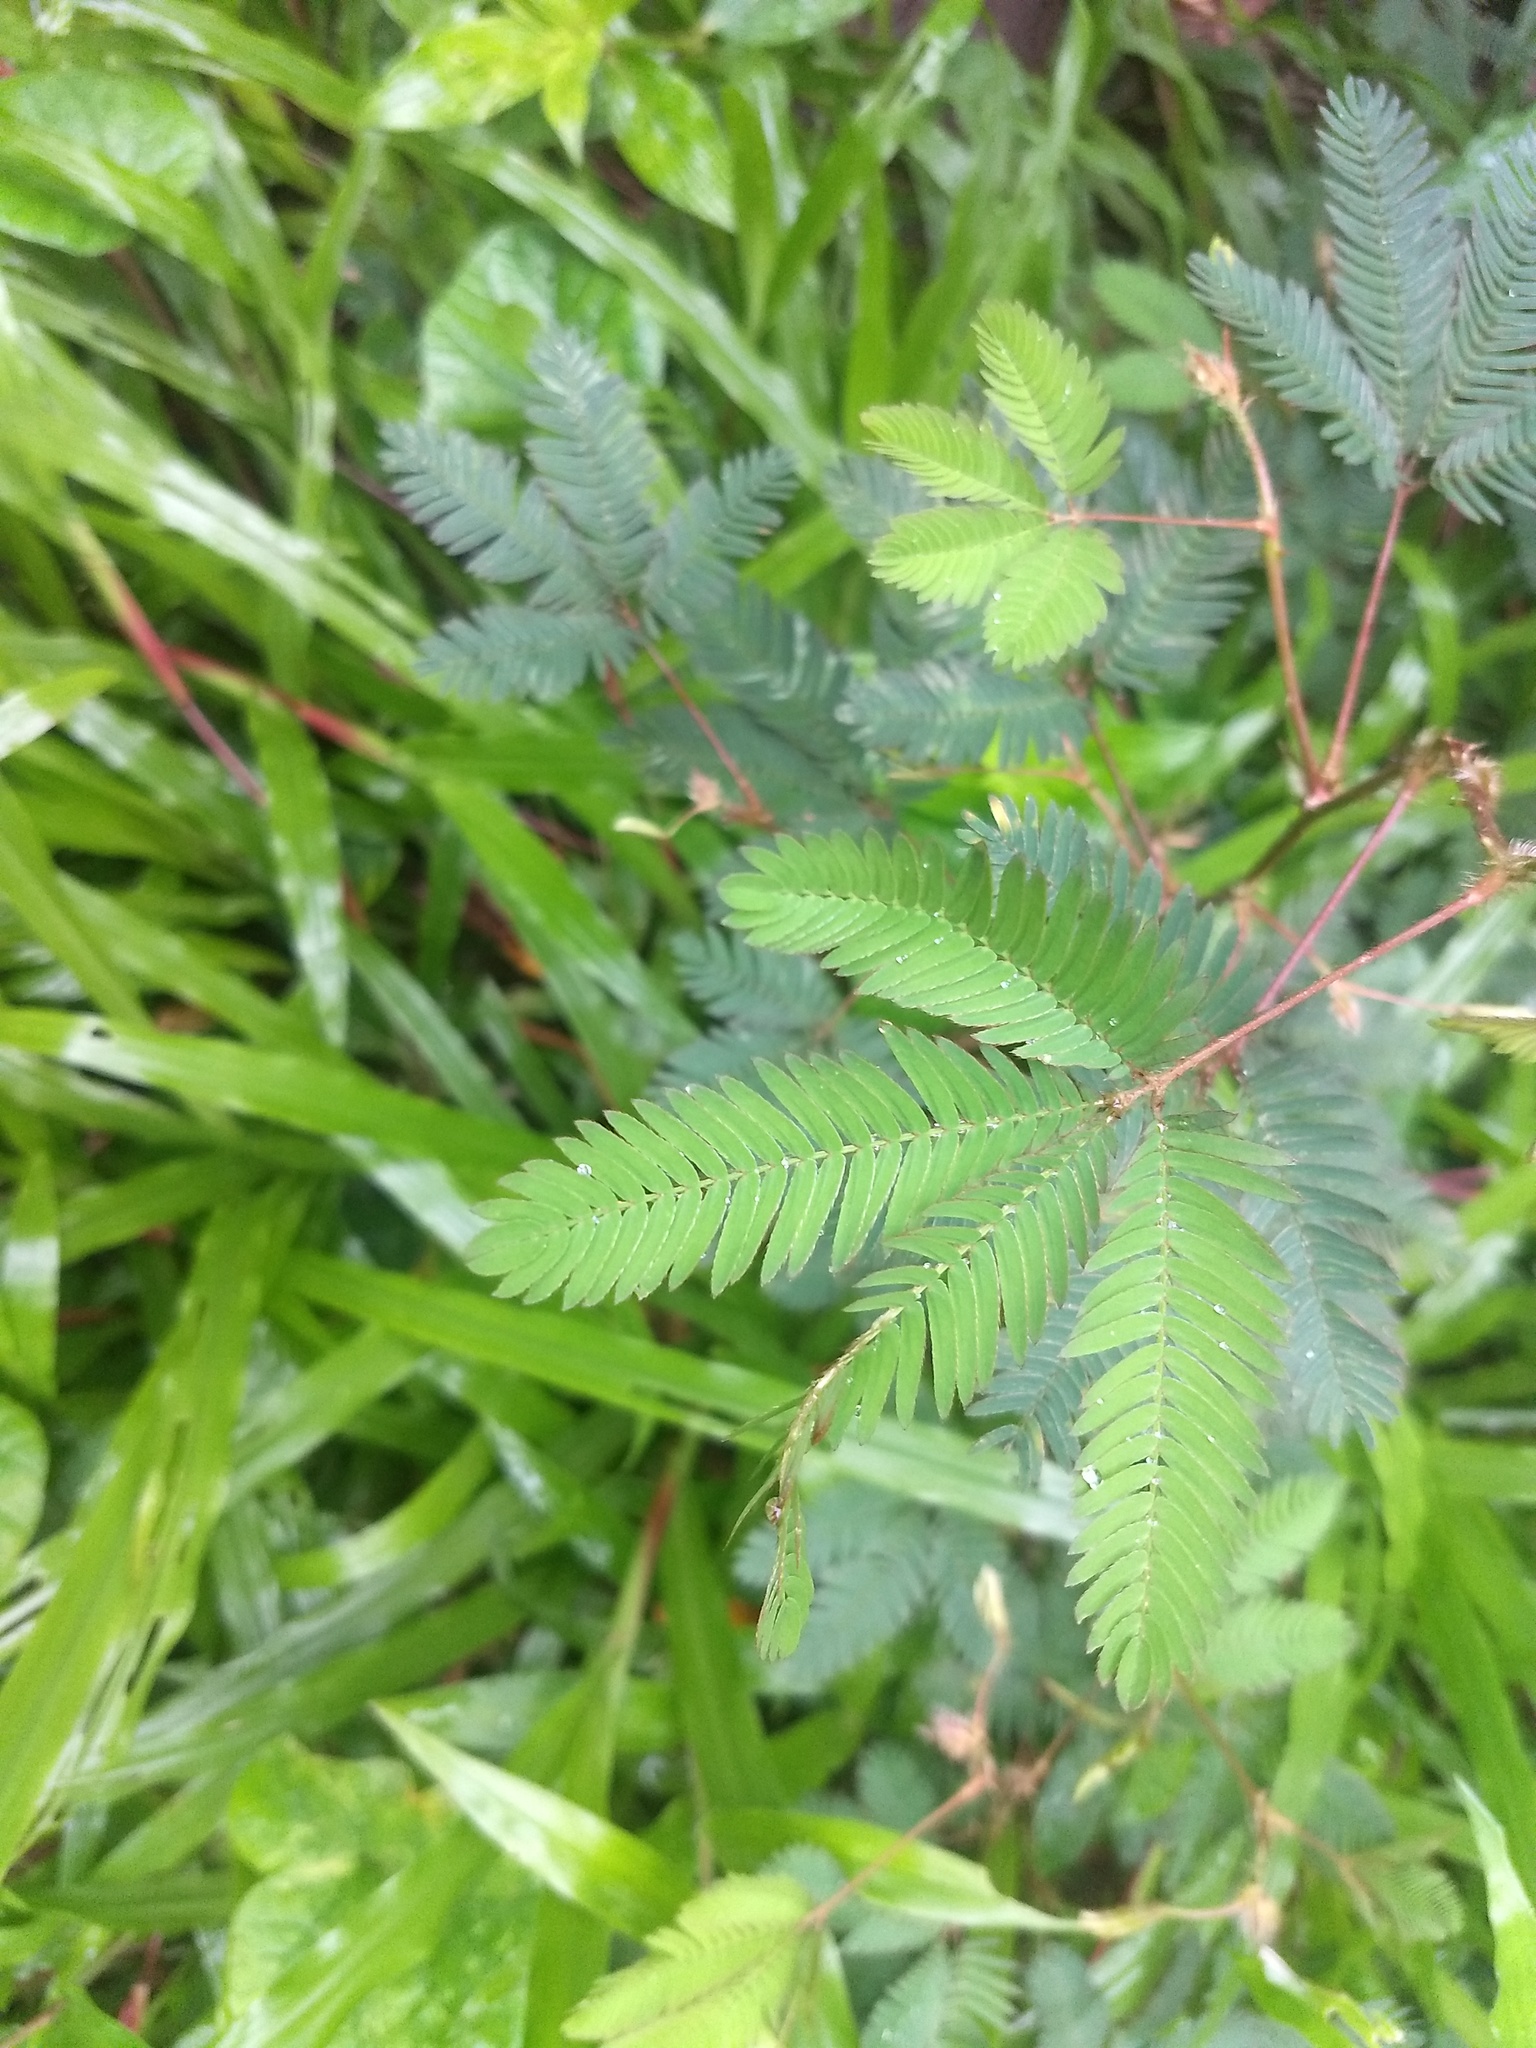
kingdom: Plantae
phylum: Tracheophyta
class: Magnoliopsida
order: Fabales
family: Fabaceae
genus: Mimosa
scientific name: Mimosa pudica
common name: Sensitive plant
